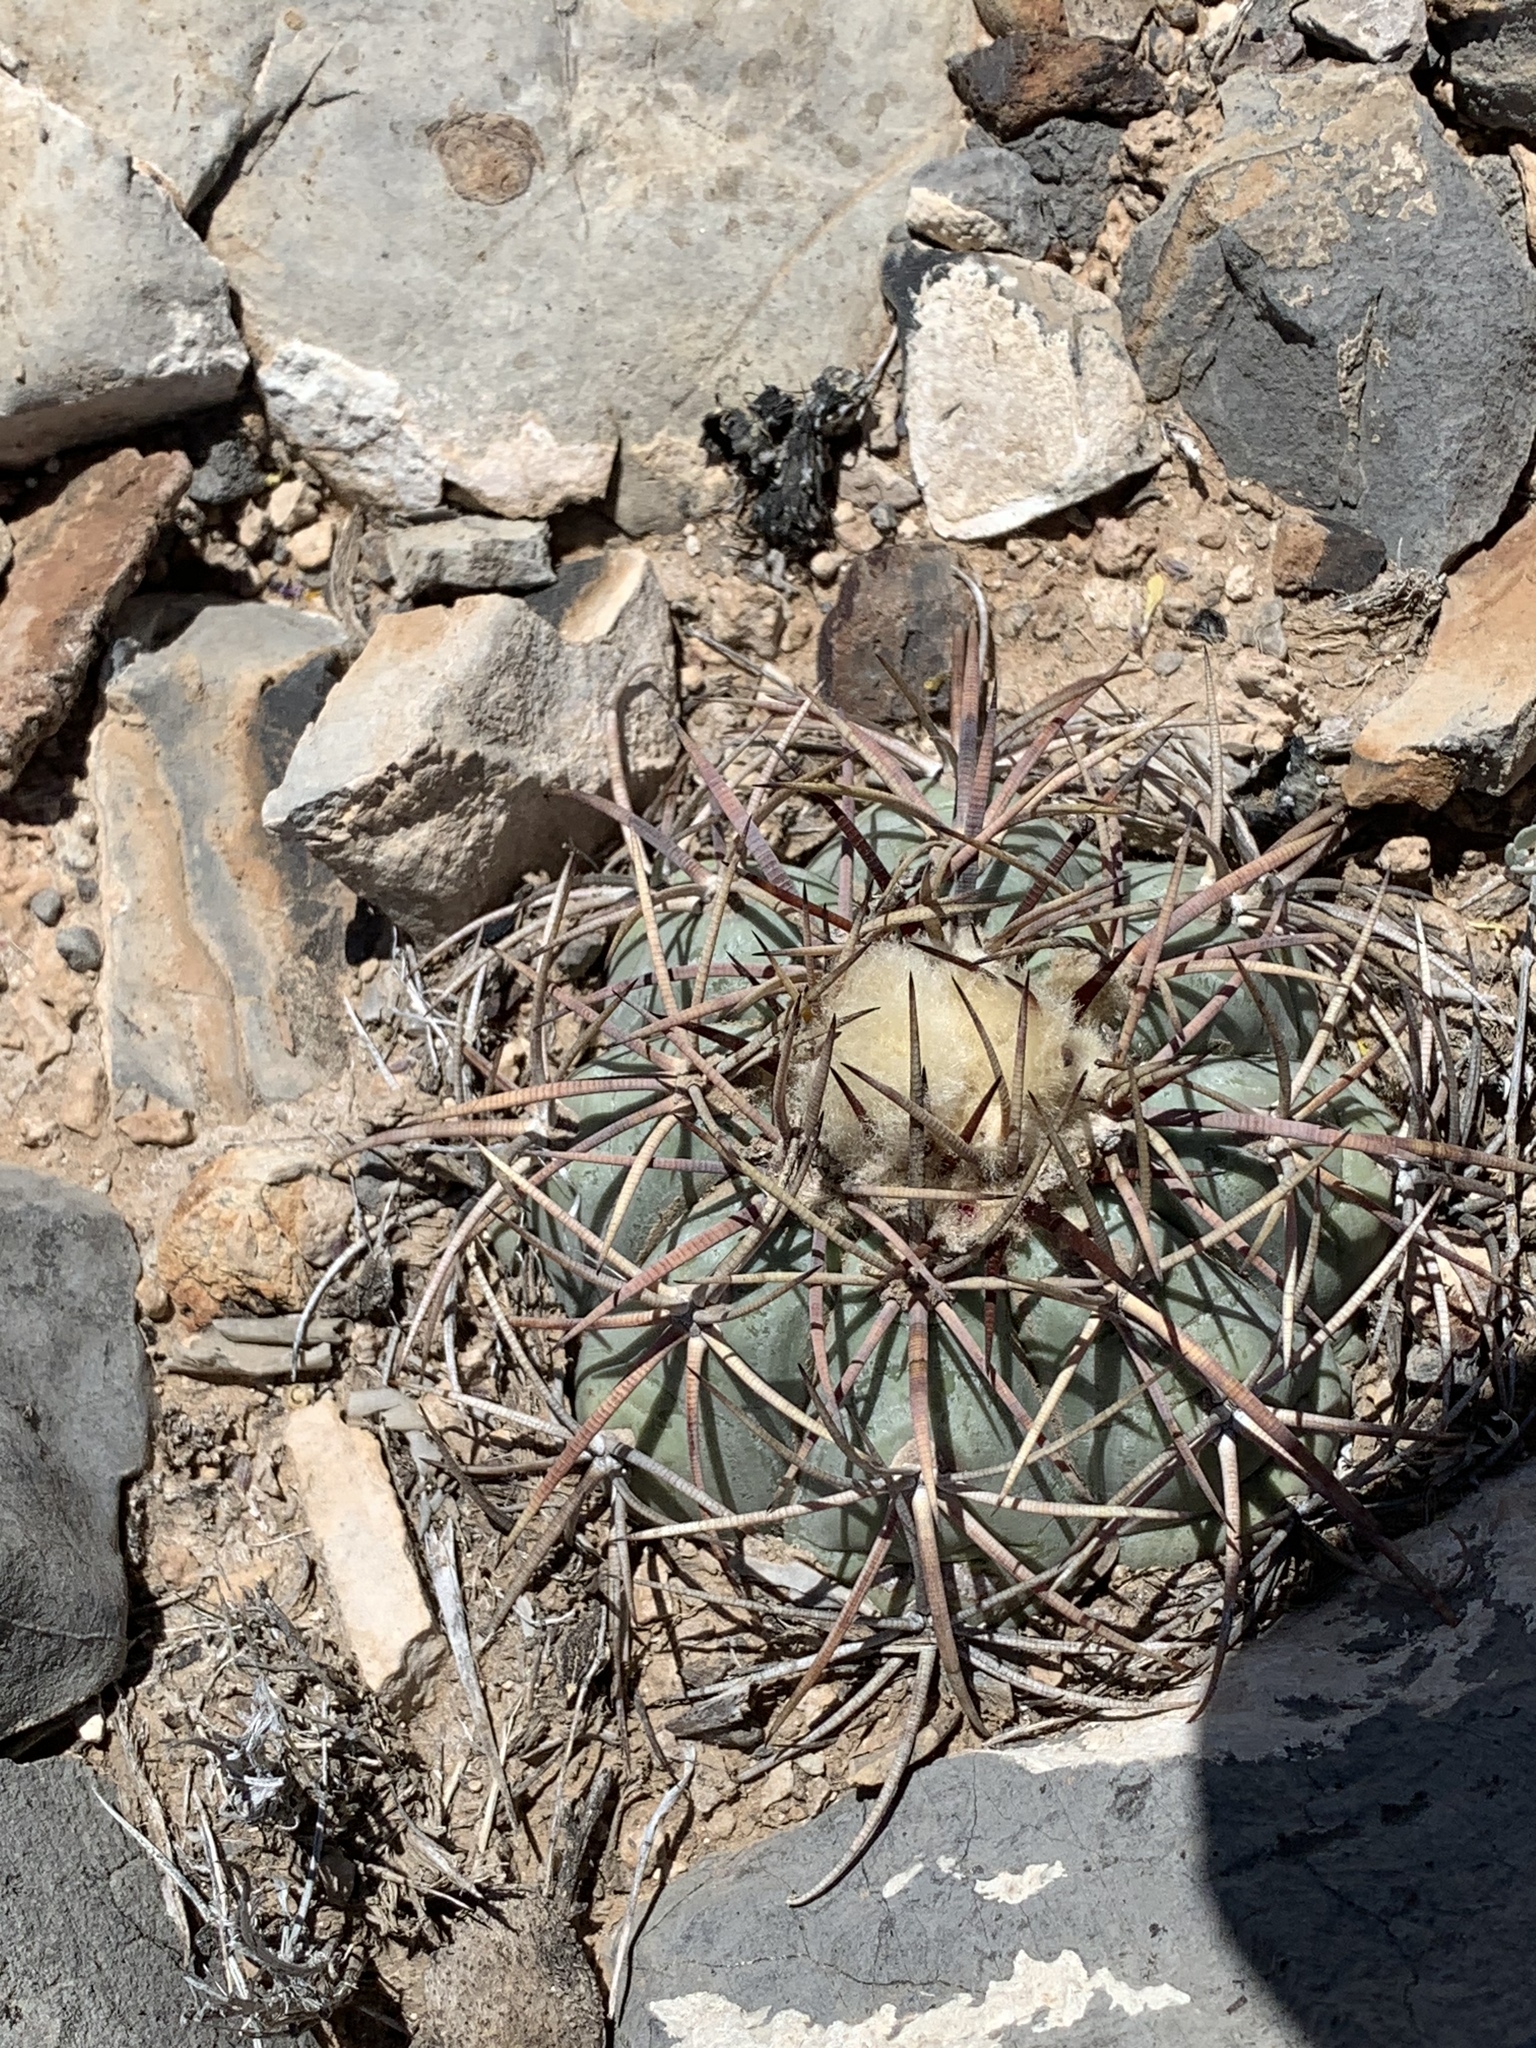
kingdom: Plantae
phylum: Tracheophyta
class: Magnoliopsida
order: Caryophyllales
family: Cactaceae
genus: Echinocactus
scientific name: Echinocactus horizonthalonius
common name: Devilshead
